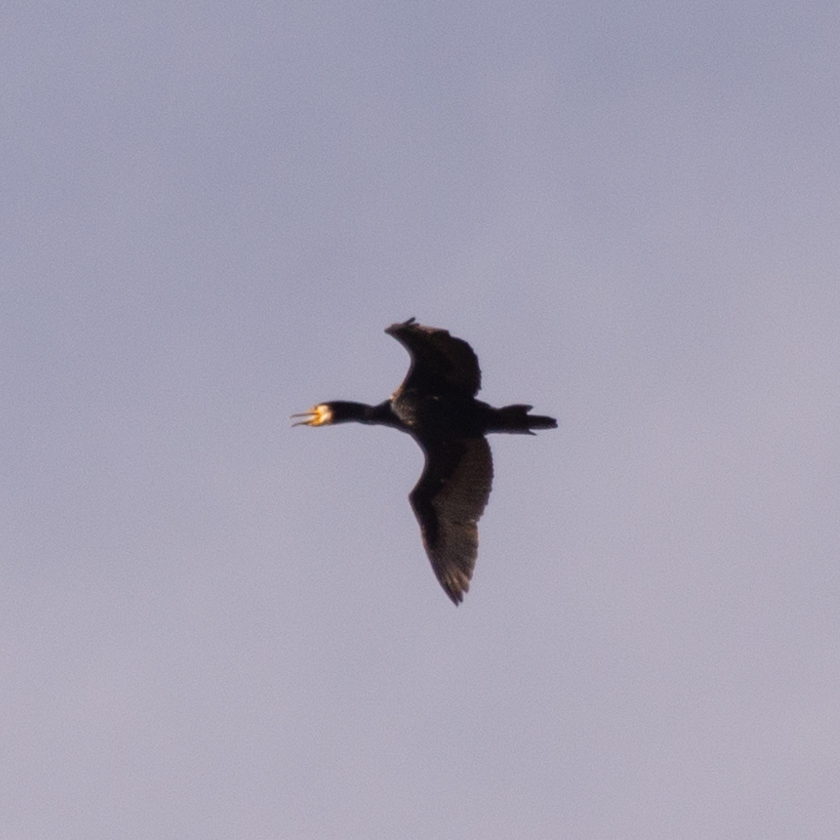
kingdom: Animalia
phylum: Chordata
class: Aves
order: Suliformes
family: Phalacrocoracidae
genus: Phalacrocorax
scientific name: Phalacrocorax carbo
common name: Great cormorant
